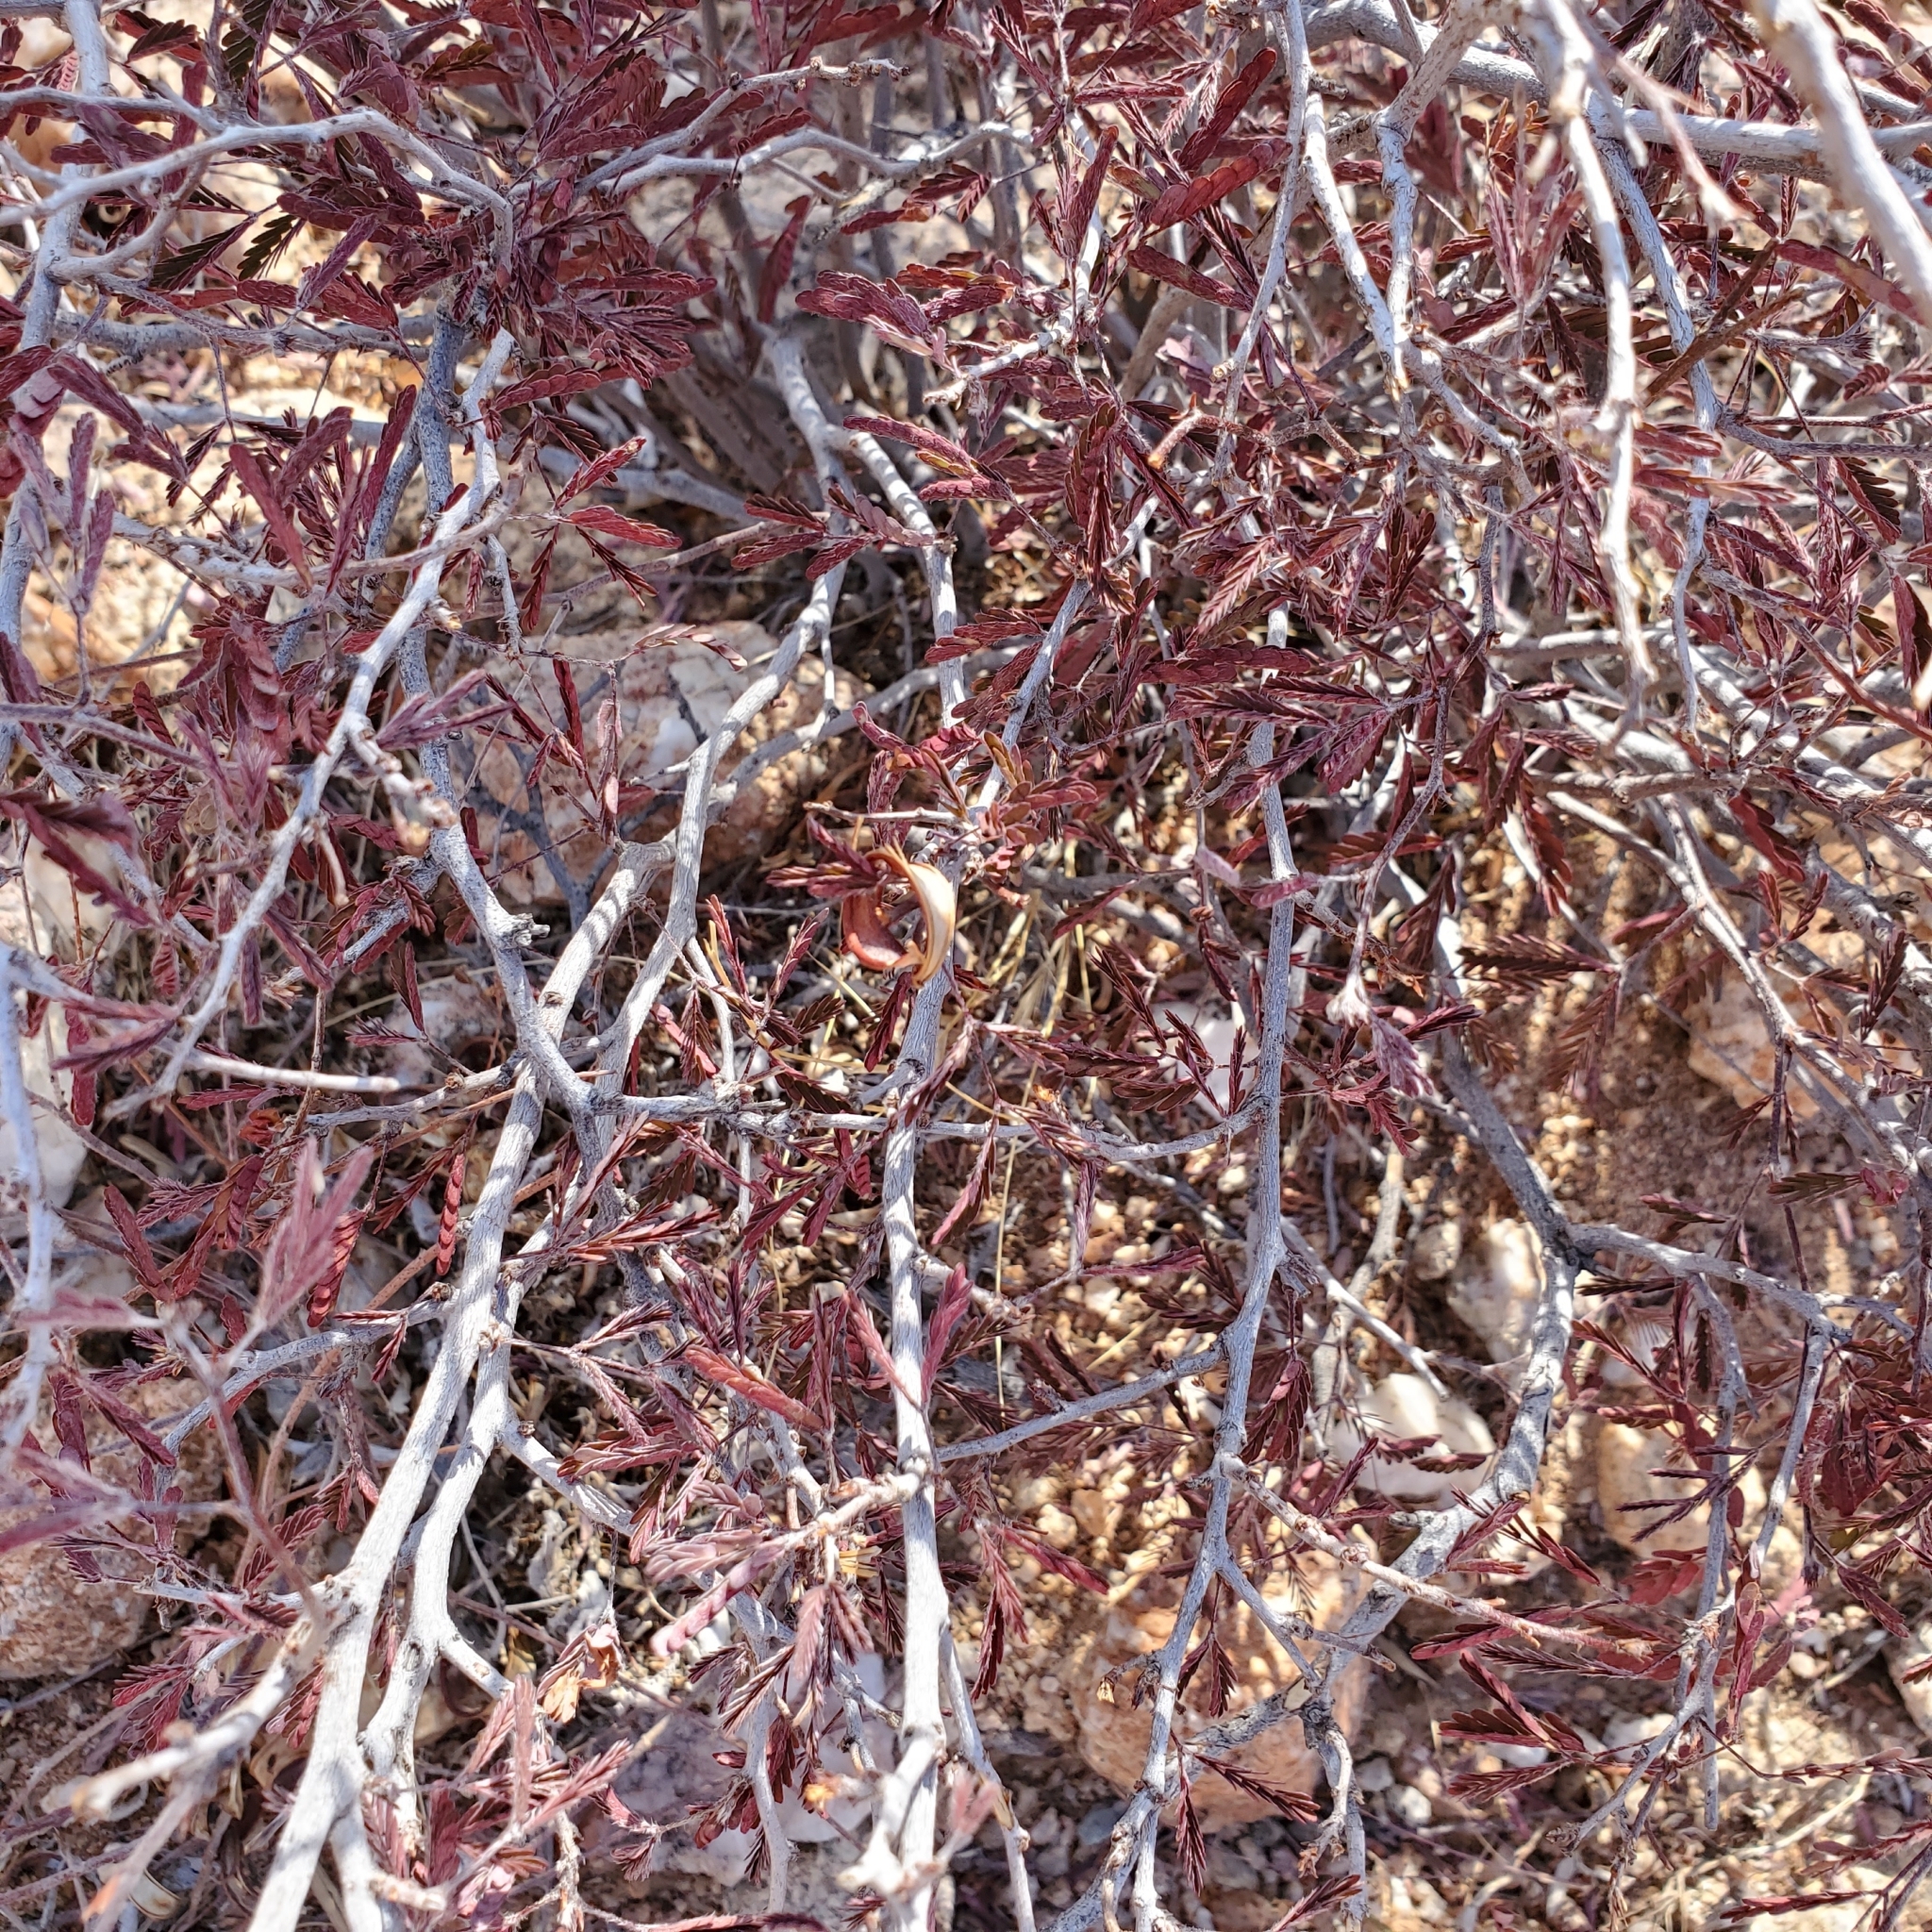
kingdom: Plantae
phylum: Tracheophyta
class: Magnoliopsida
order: Fabales
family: Fabaceae
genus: Calliandra
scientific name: Calliandra eriophylla
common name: Fairy-duster
